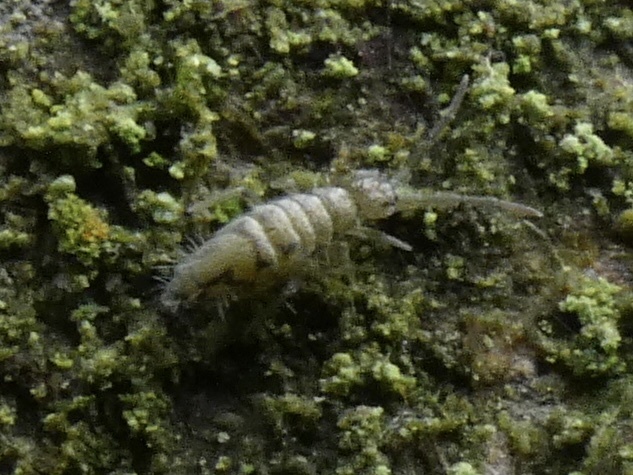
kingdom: Animalia
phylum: Arthropoda
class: Collembola
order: Entomobryomorpha
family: Entomobryidae
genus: Entomobrya
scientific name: Entomobrya nivalis
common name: Cosmopolitan springtail
